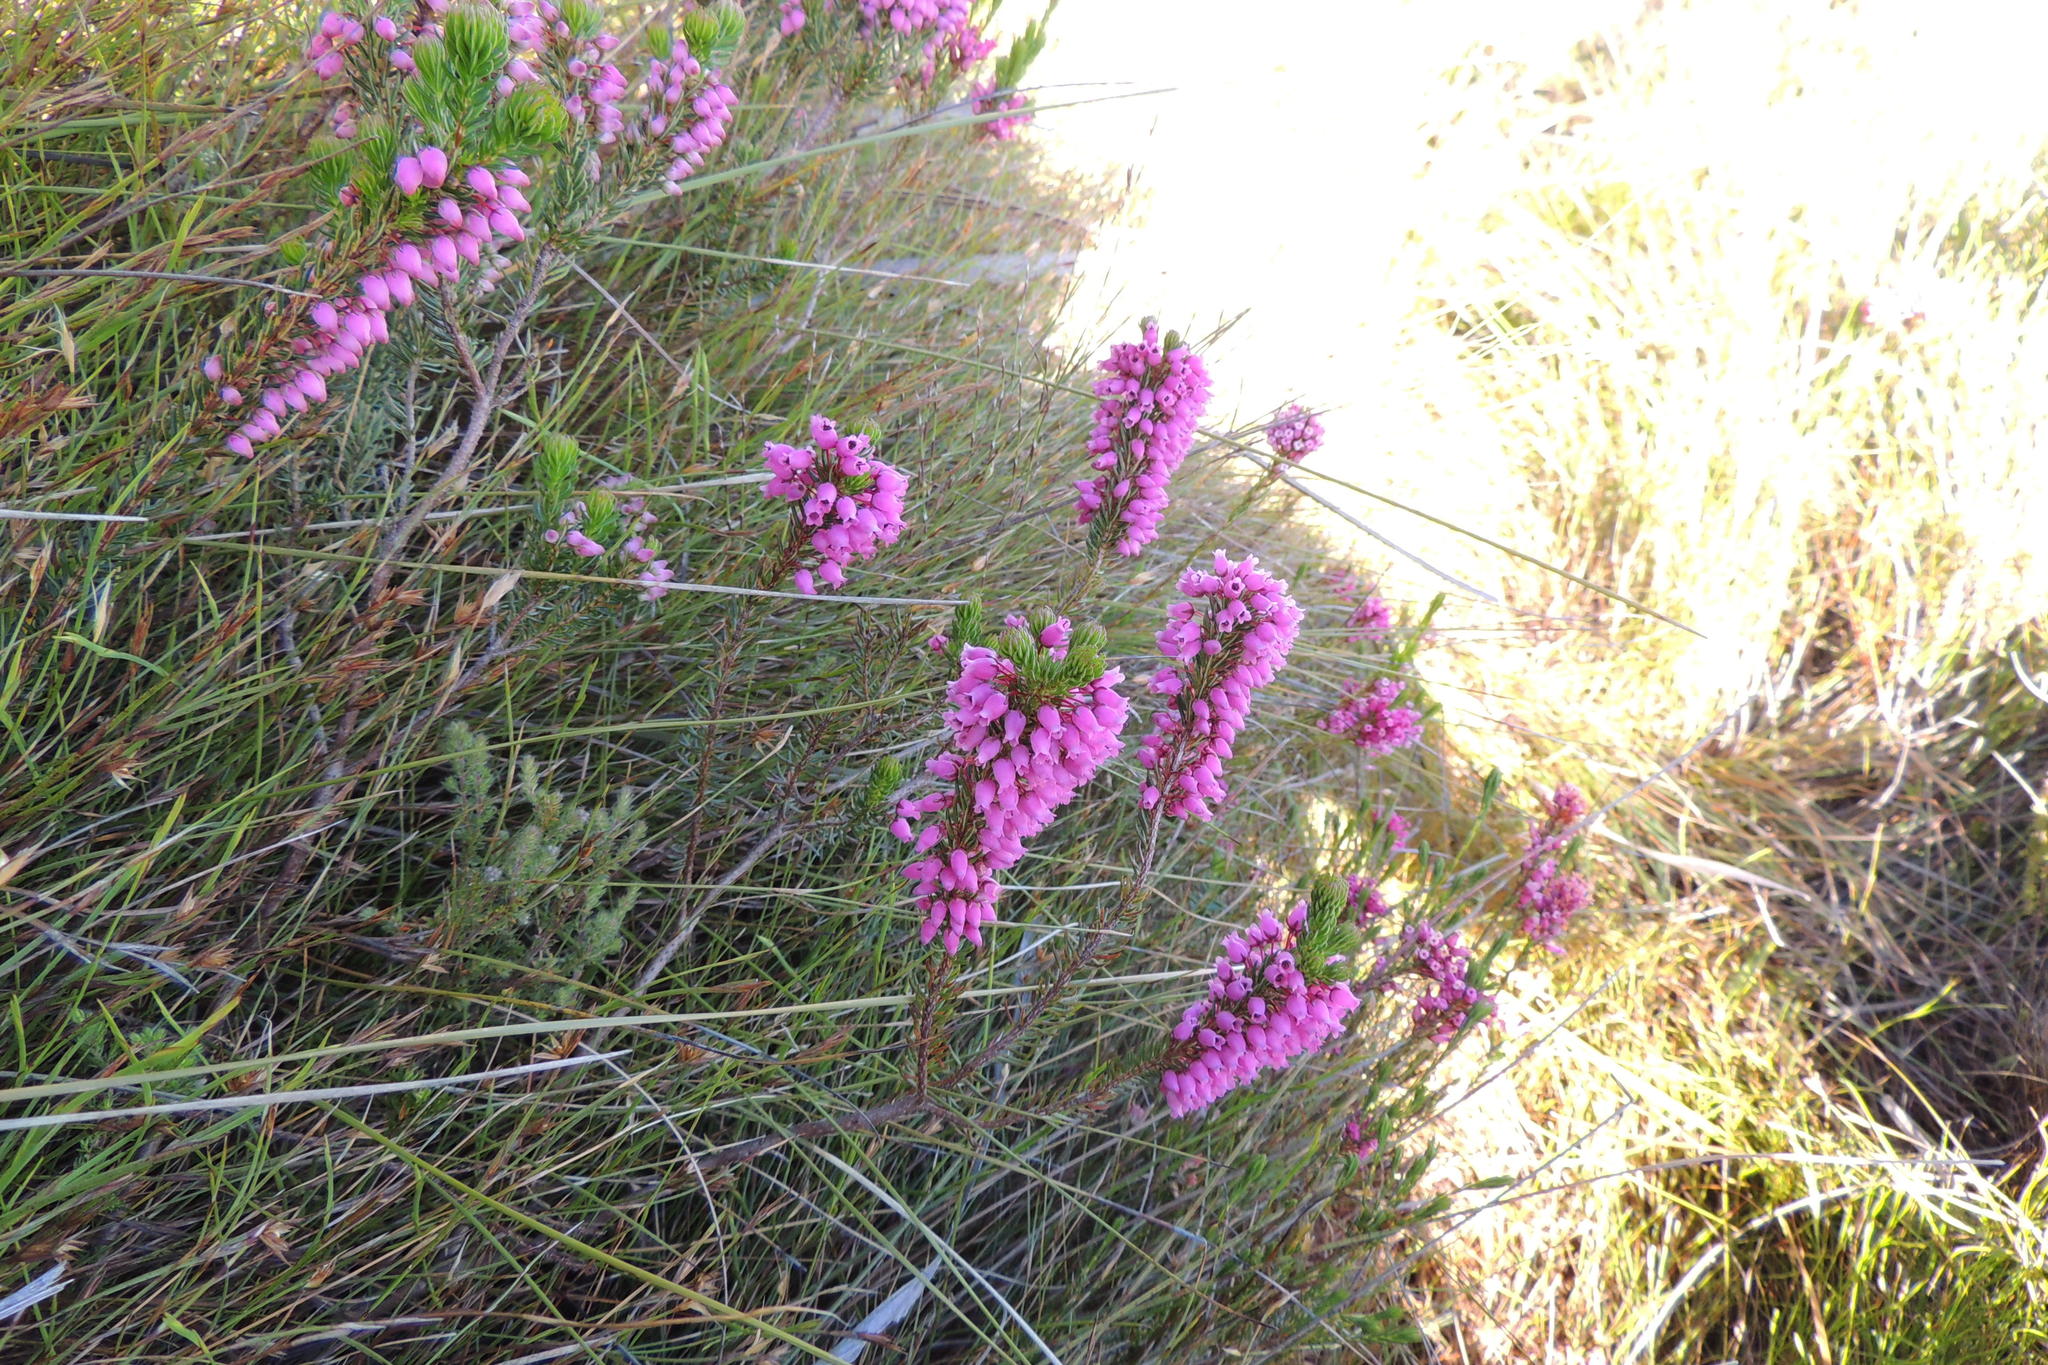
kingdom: Plantae
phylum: Tracheophyta
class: Magnoliopsida
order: Ericales
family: Ericaceae
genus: Erica
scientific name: Erica regerminans
